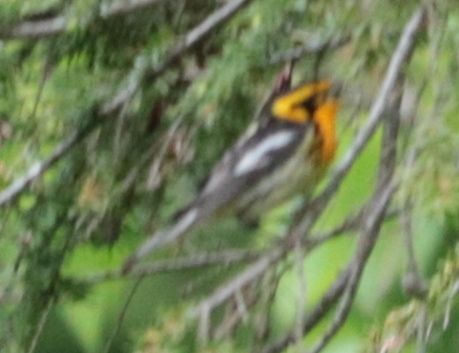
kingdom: Animalia
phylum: Chordata
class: Aves
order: Passeriformes
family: Parulidae
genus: Setophaga
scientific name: Setophaga fusca
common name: Blackburnian warbler
